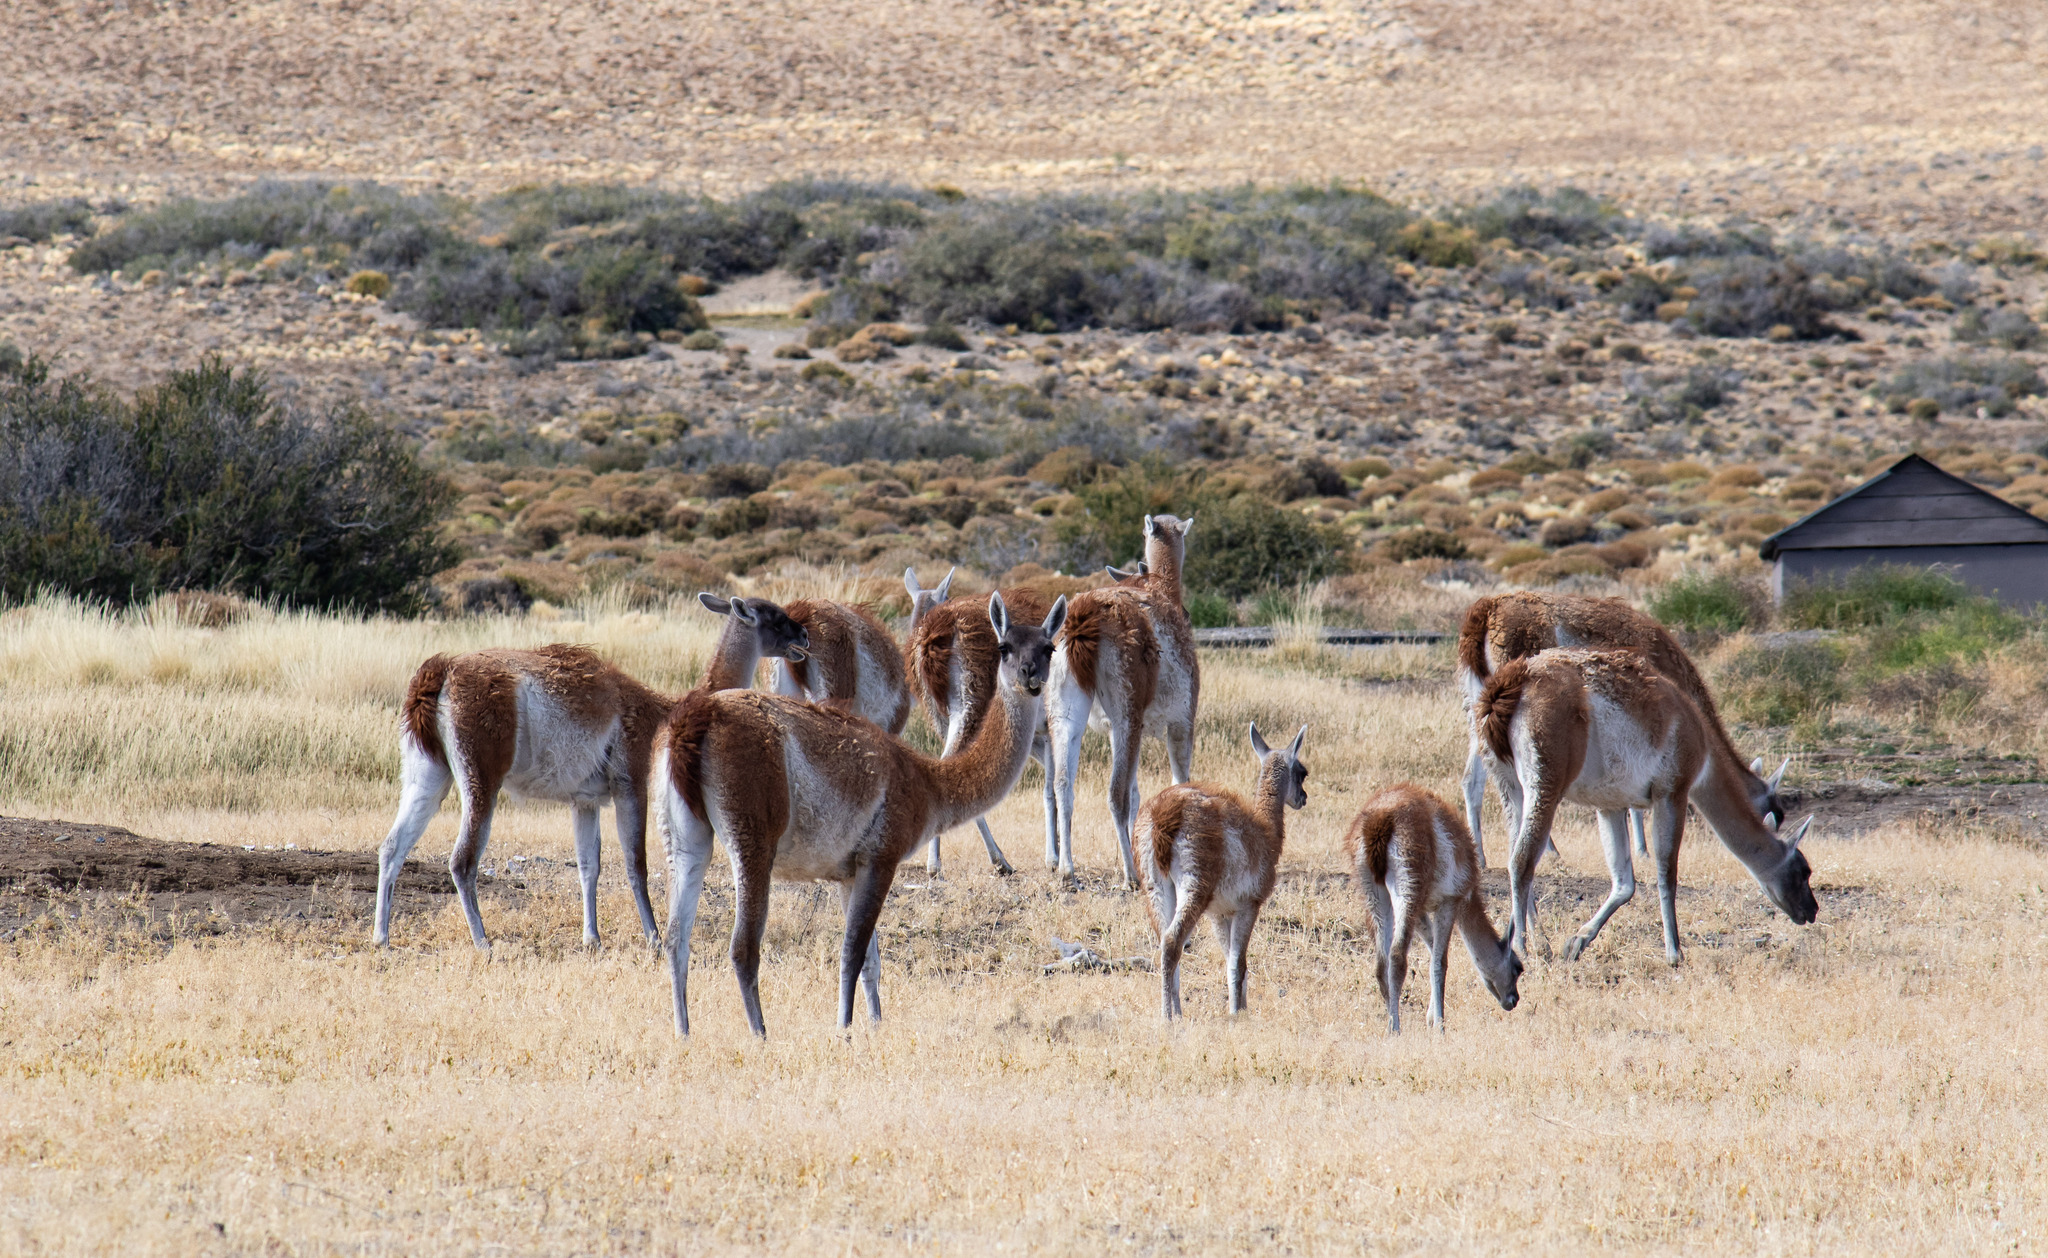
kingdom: Animalia
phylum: Chordata
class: Mammalia
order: Artiodactyla
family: Camelidae
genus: Lama
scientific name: Lama glama
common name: Llama
